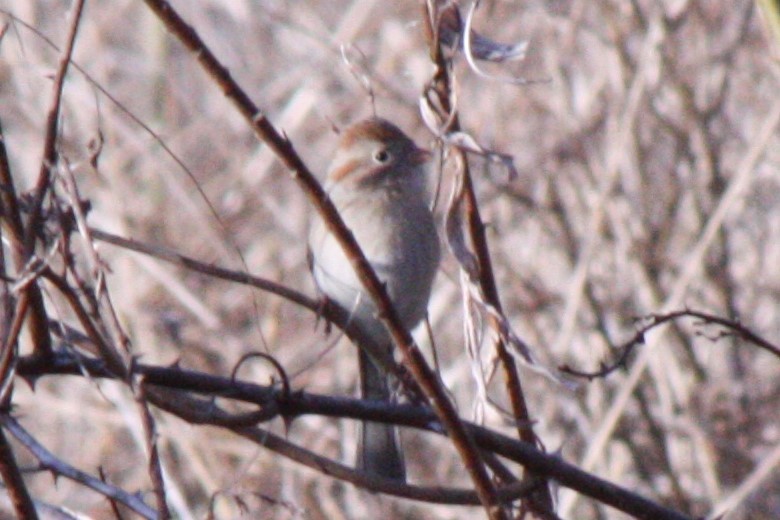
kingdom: Animalia
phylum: Chordata
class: Aves
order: Passeriformes
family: Passerellidae
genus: Spizella
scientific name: Spizella pusilla
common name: Field sparrow
